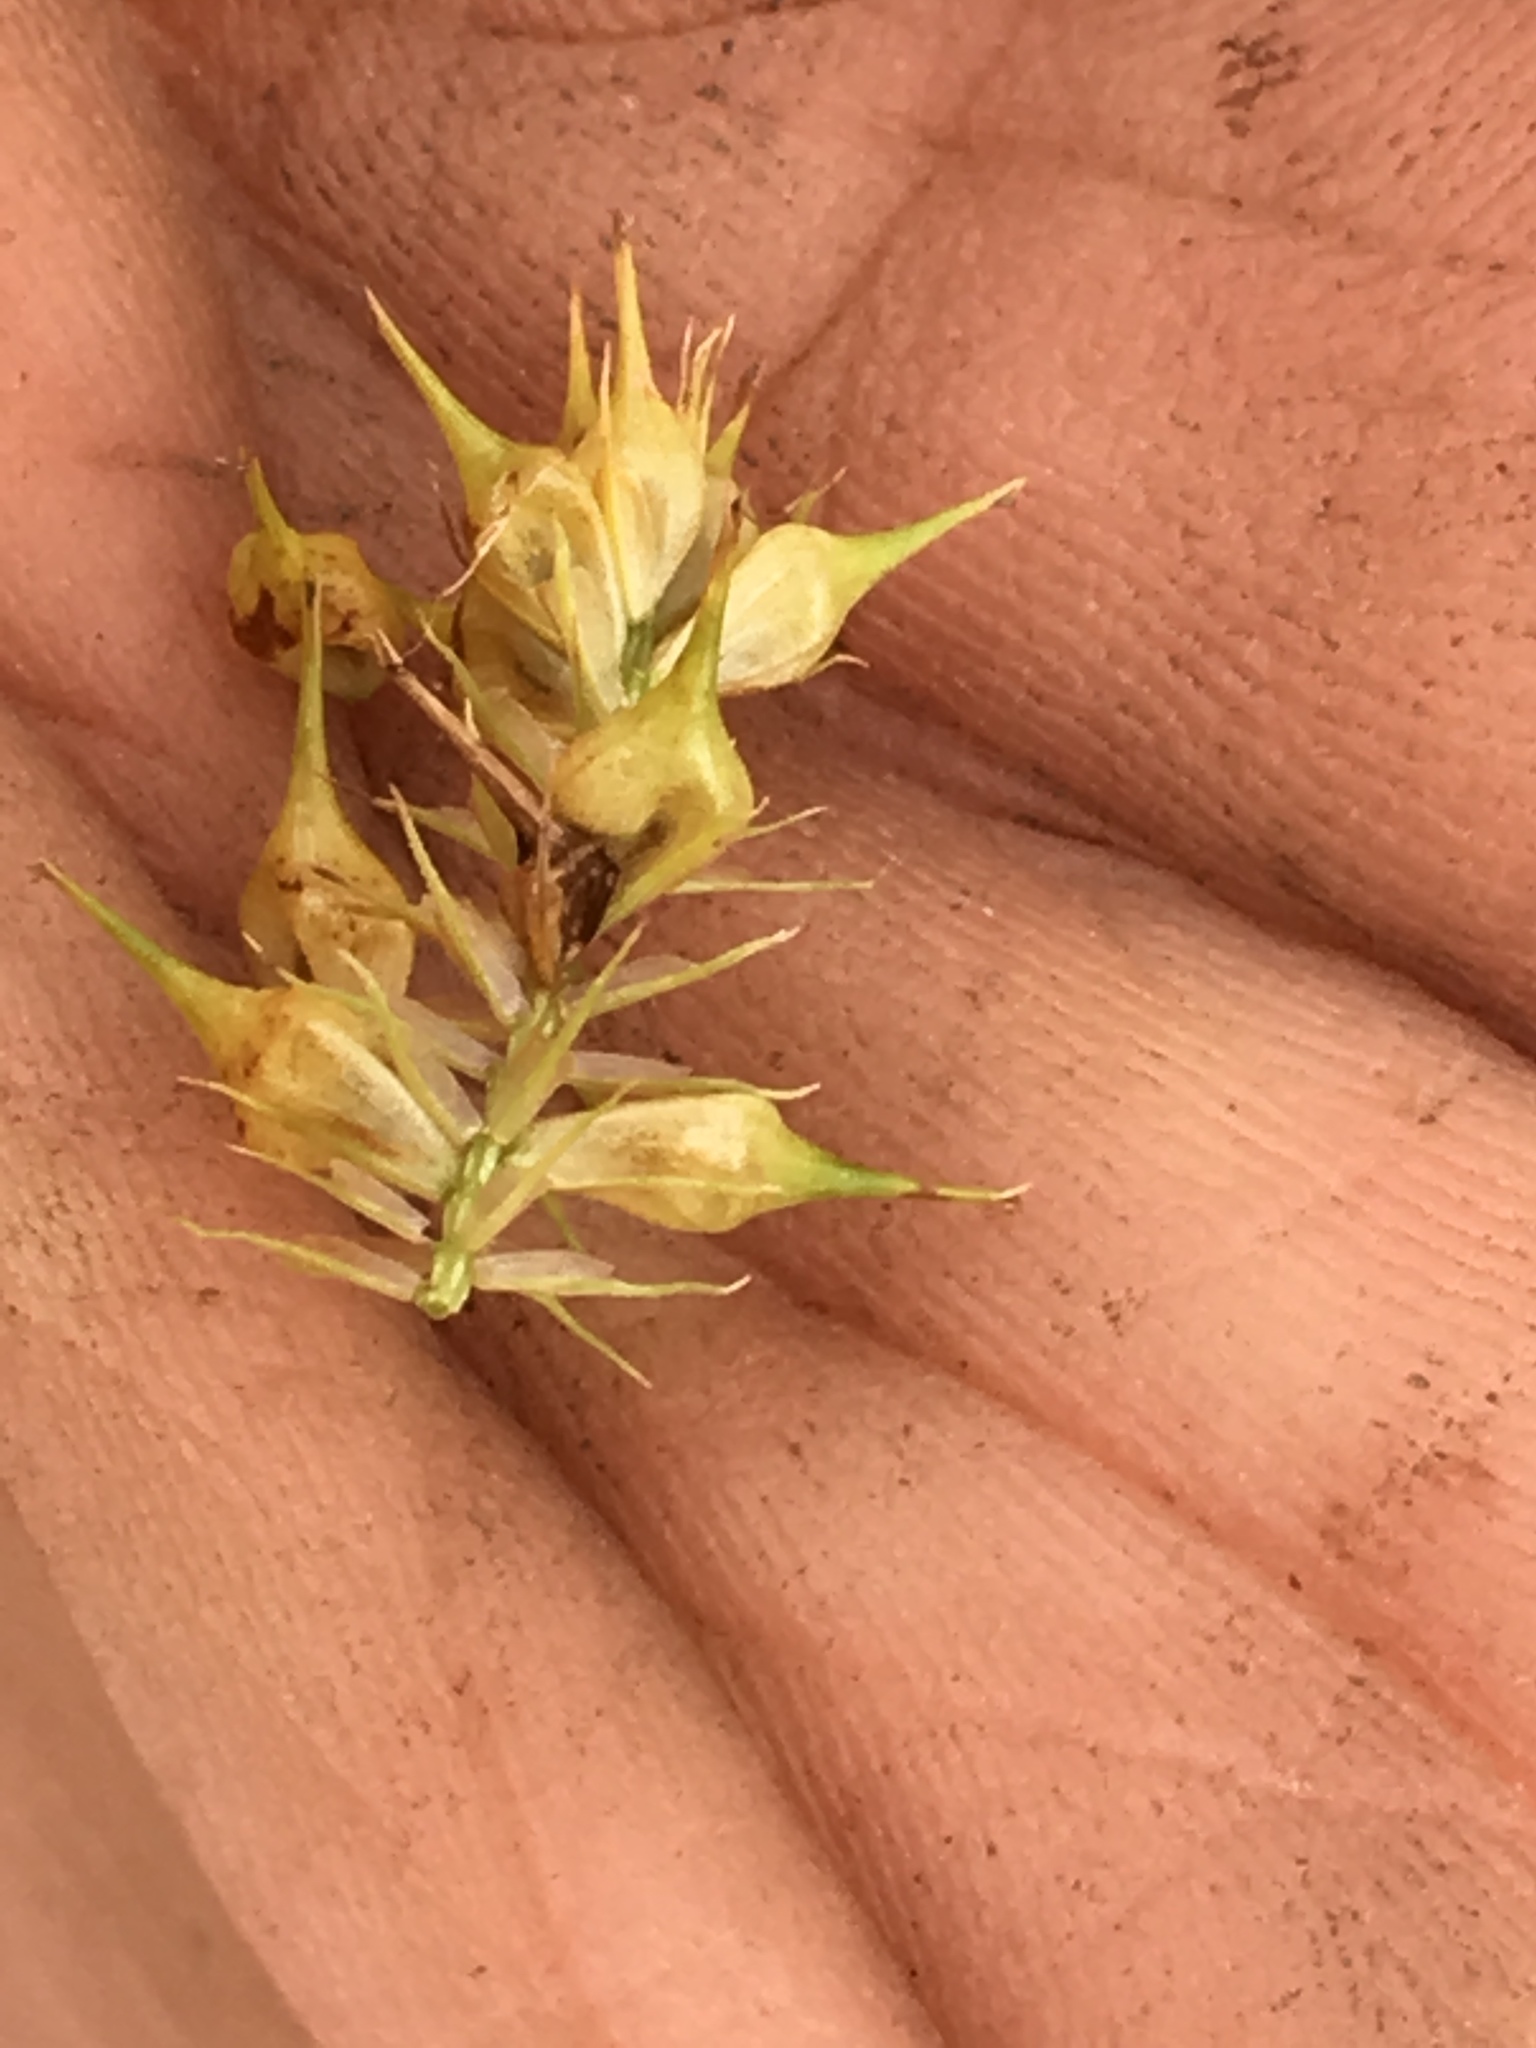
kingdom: Plantae
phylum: Tracheophyta
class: Liliopsida
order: Poales
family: Cyperaceae
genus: Carex
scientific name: Carex lurida
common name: Sallow sedge
